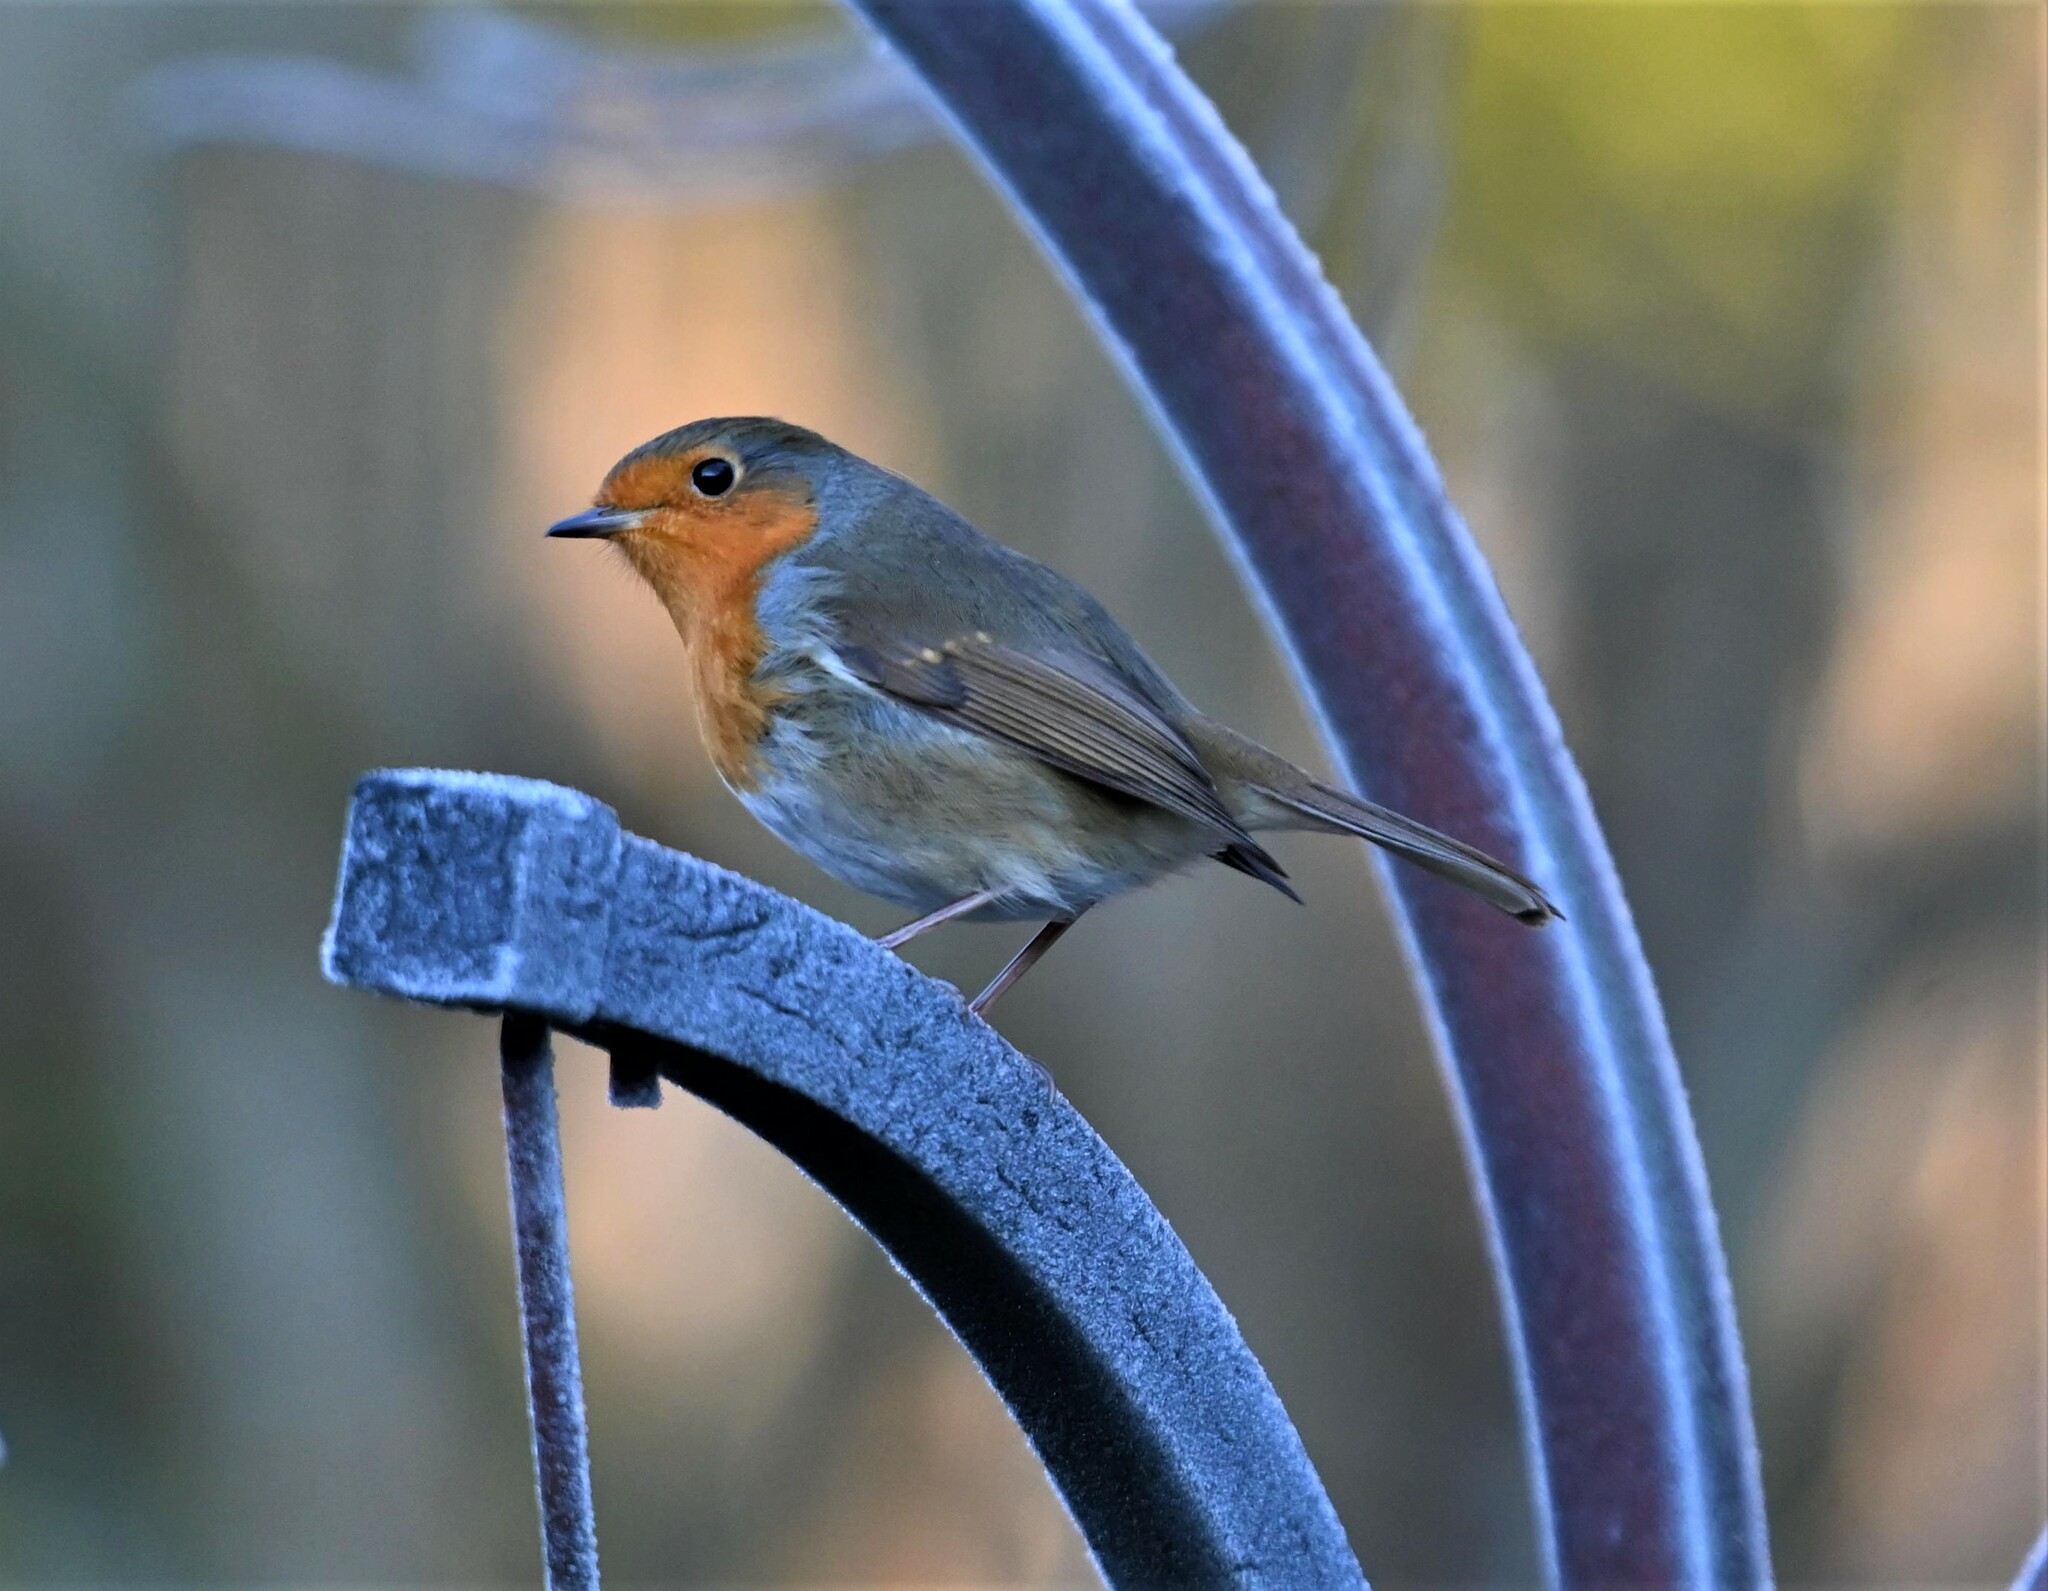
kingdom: Animalia
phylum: Chordata
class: Aves
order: Passeriformes
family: Muscicapidae
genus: Erithacus
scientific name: Erithacus rubecula
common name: European robin
